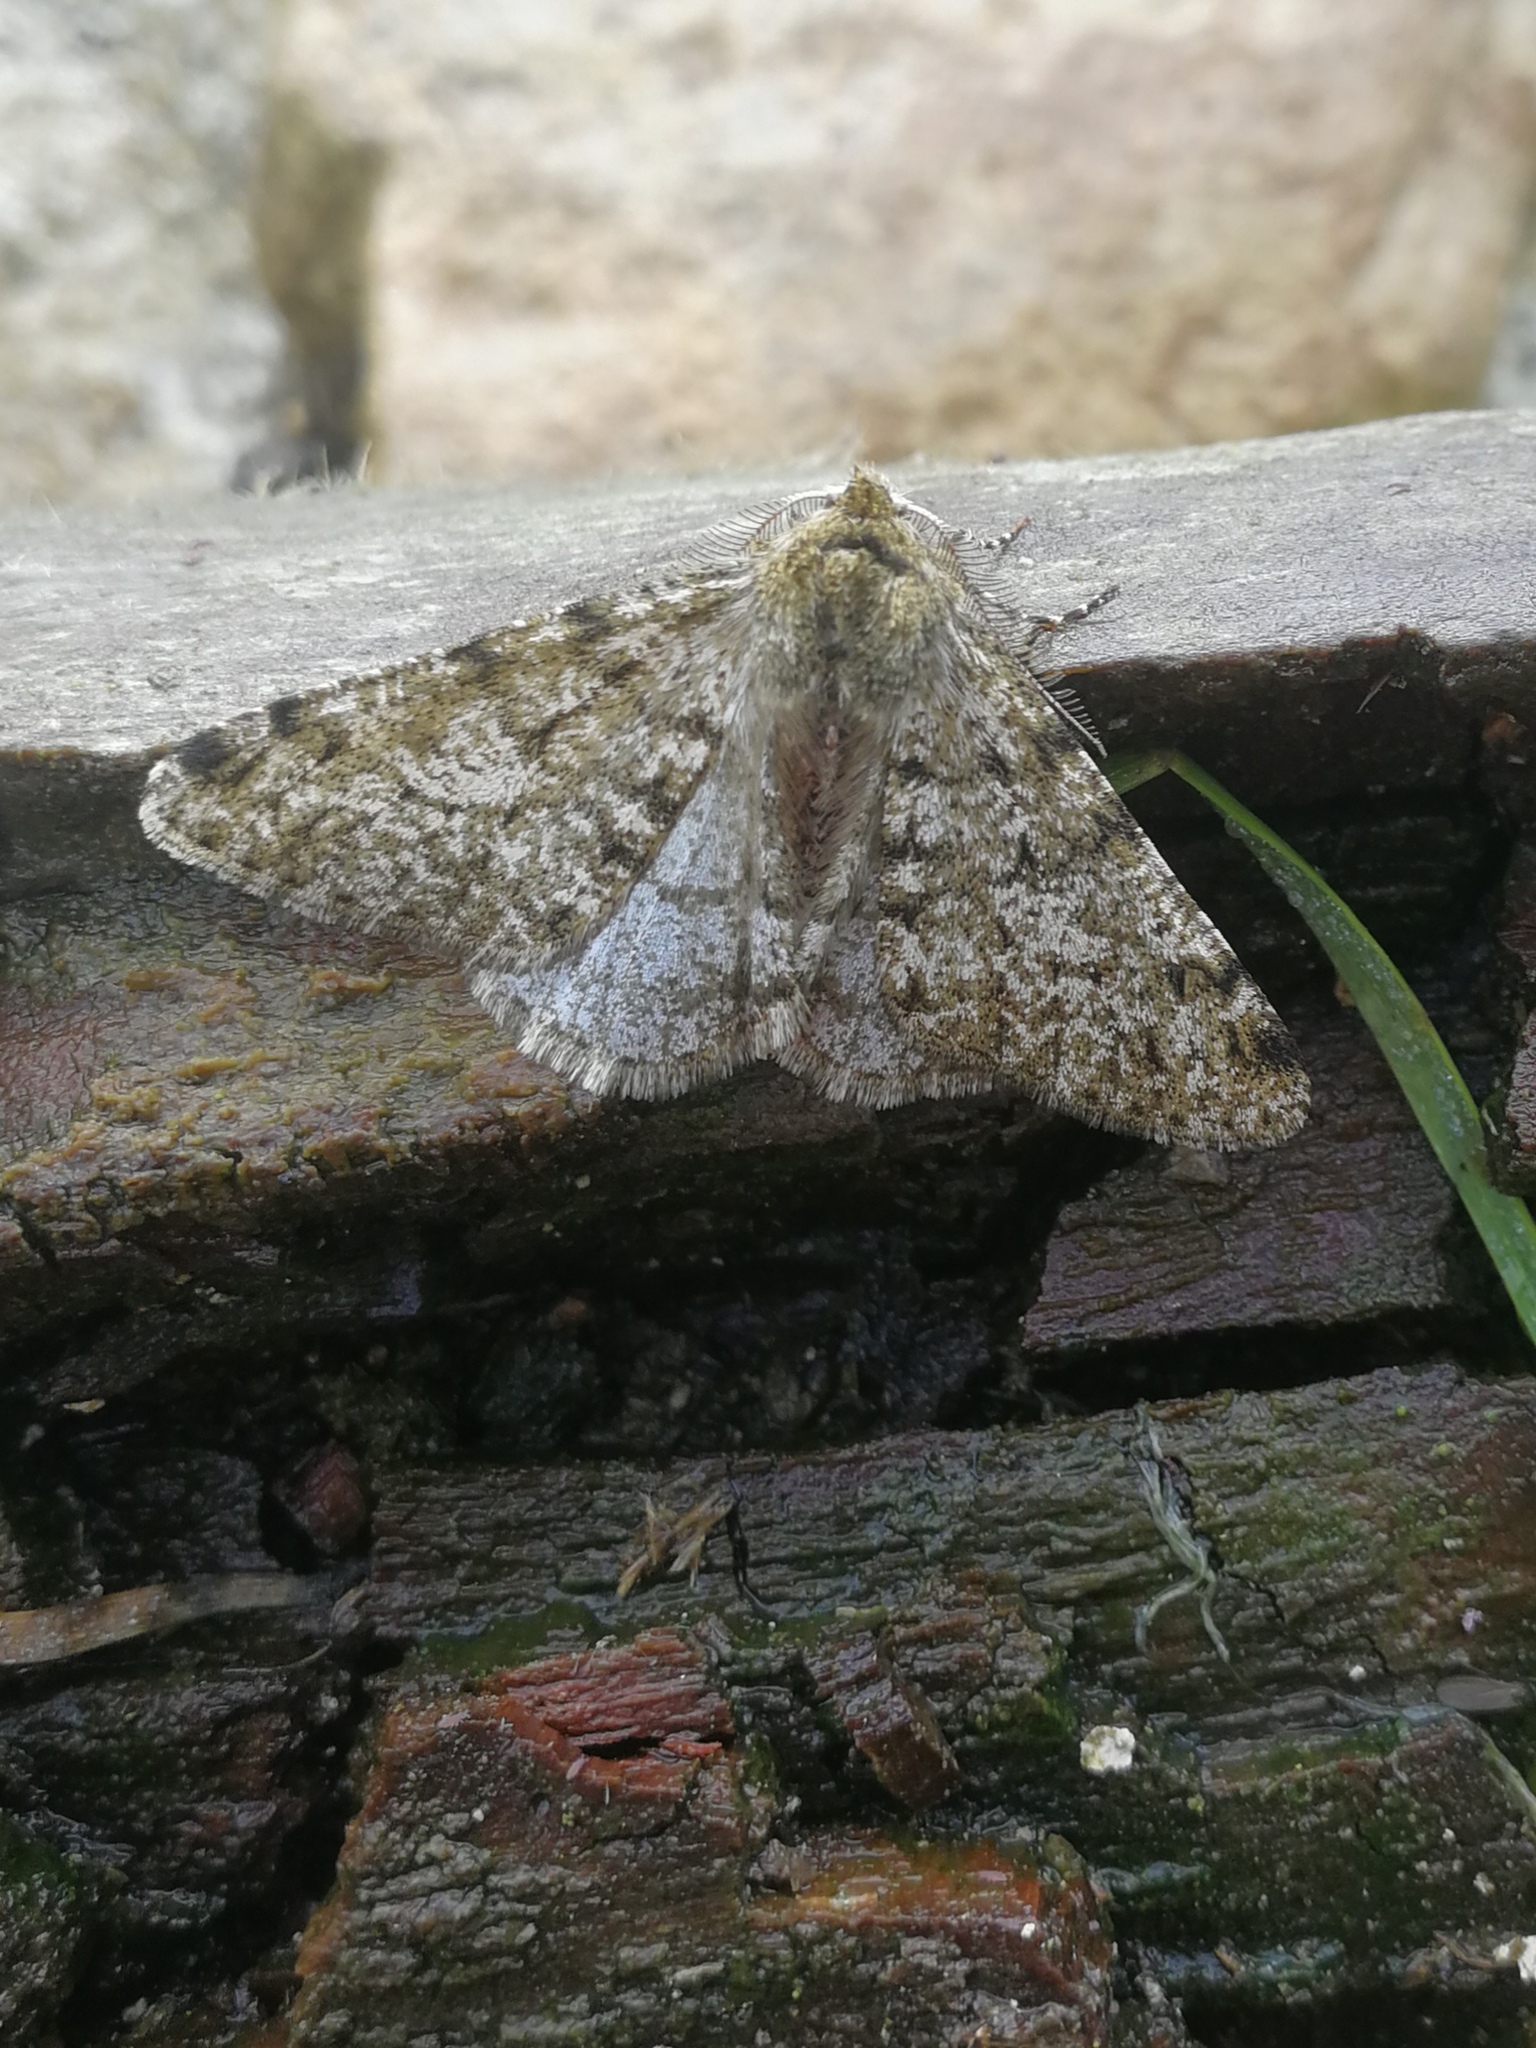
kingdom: Animalia
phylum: Arthropoda
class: Insecta
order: Lepidoptera
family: Geometridae
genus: Phigalia
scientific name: Phigalia pilosaria
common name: Pale brindled beauty
